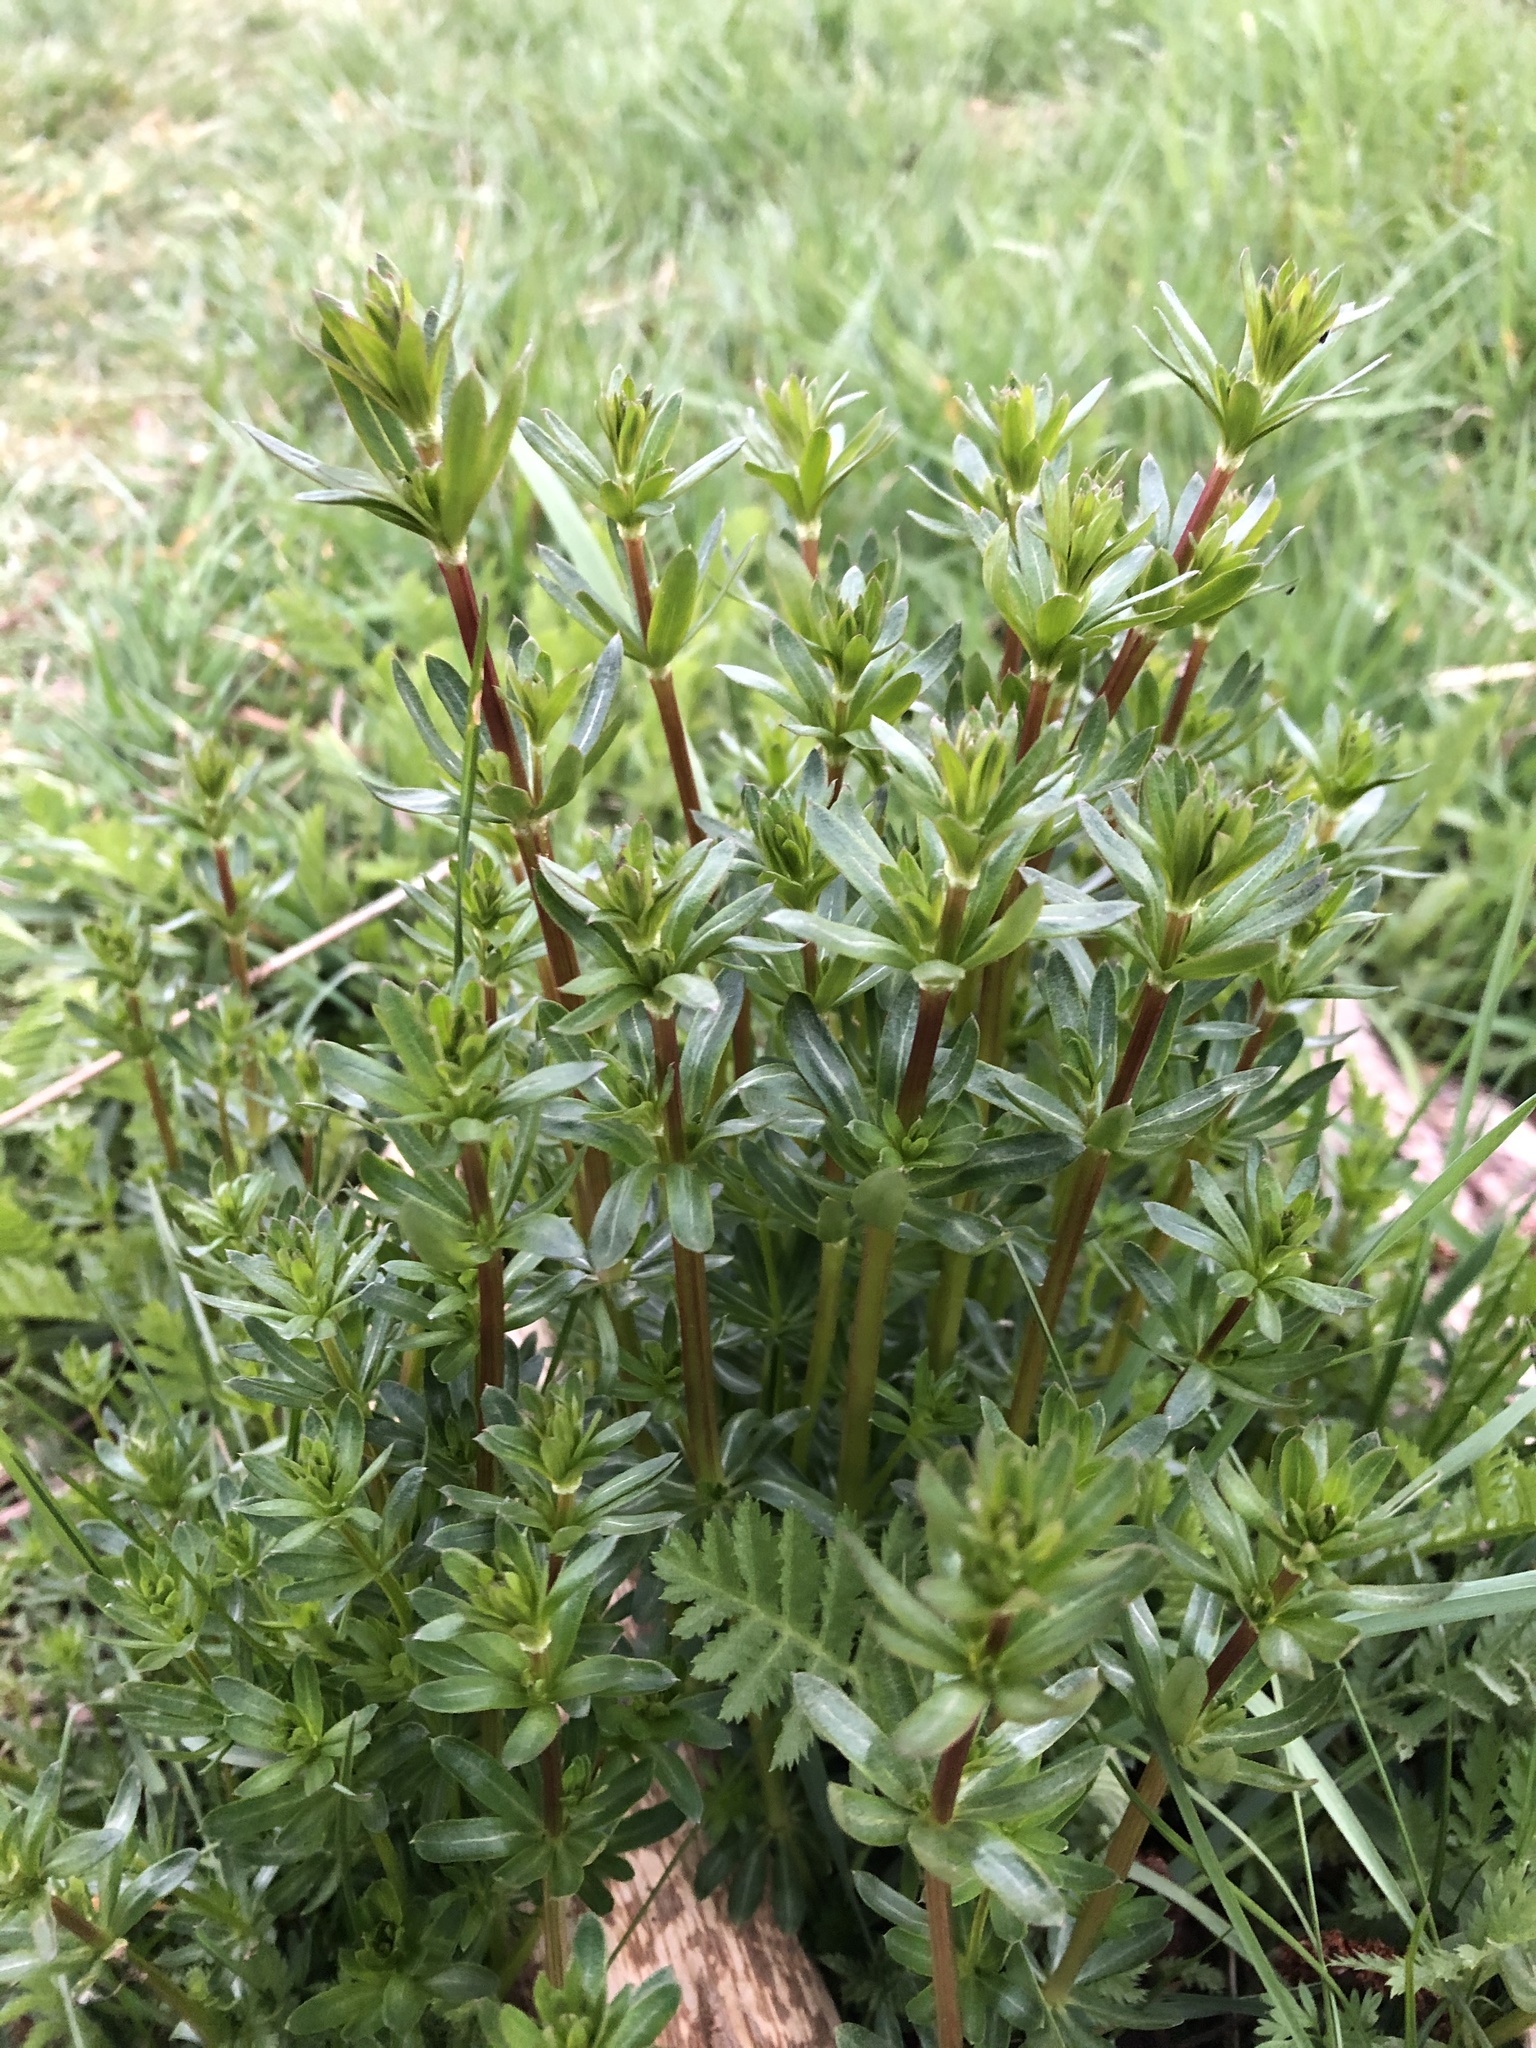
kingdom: Plantae
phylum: Tracheophyta
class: Magnoliopsida
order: Gentianales
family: Rubiaceae
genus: Galium
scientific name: Galium mollugo
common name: Hedge bedstraw
